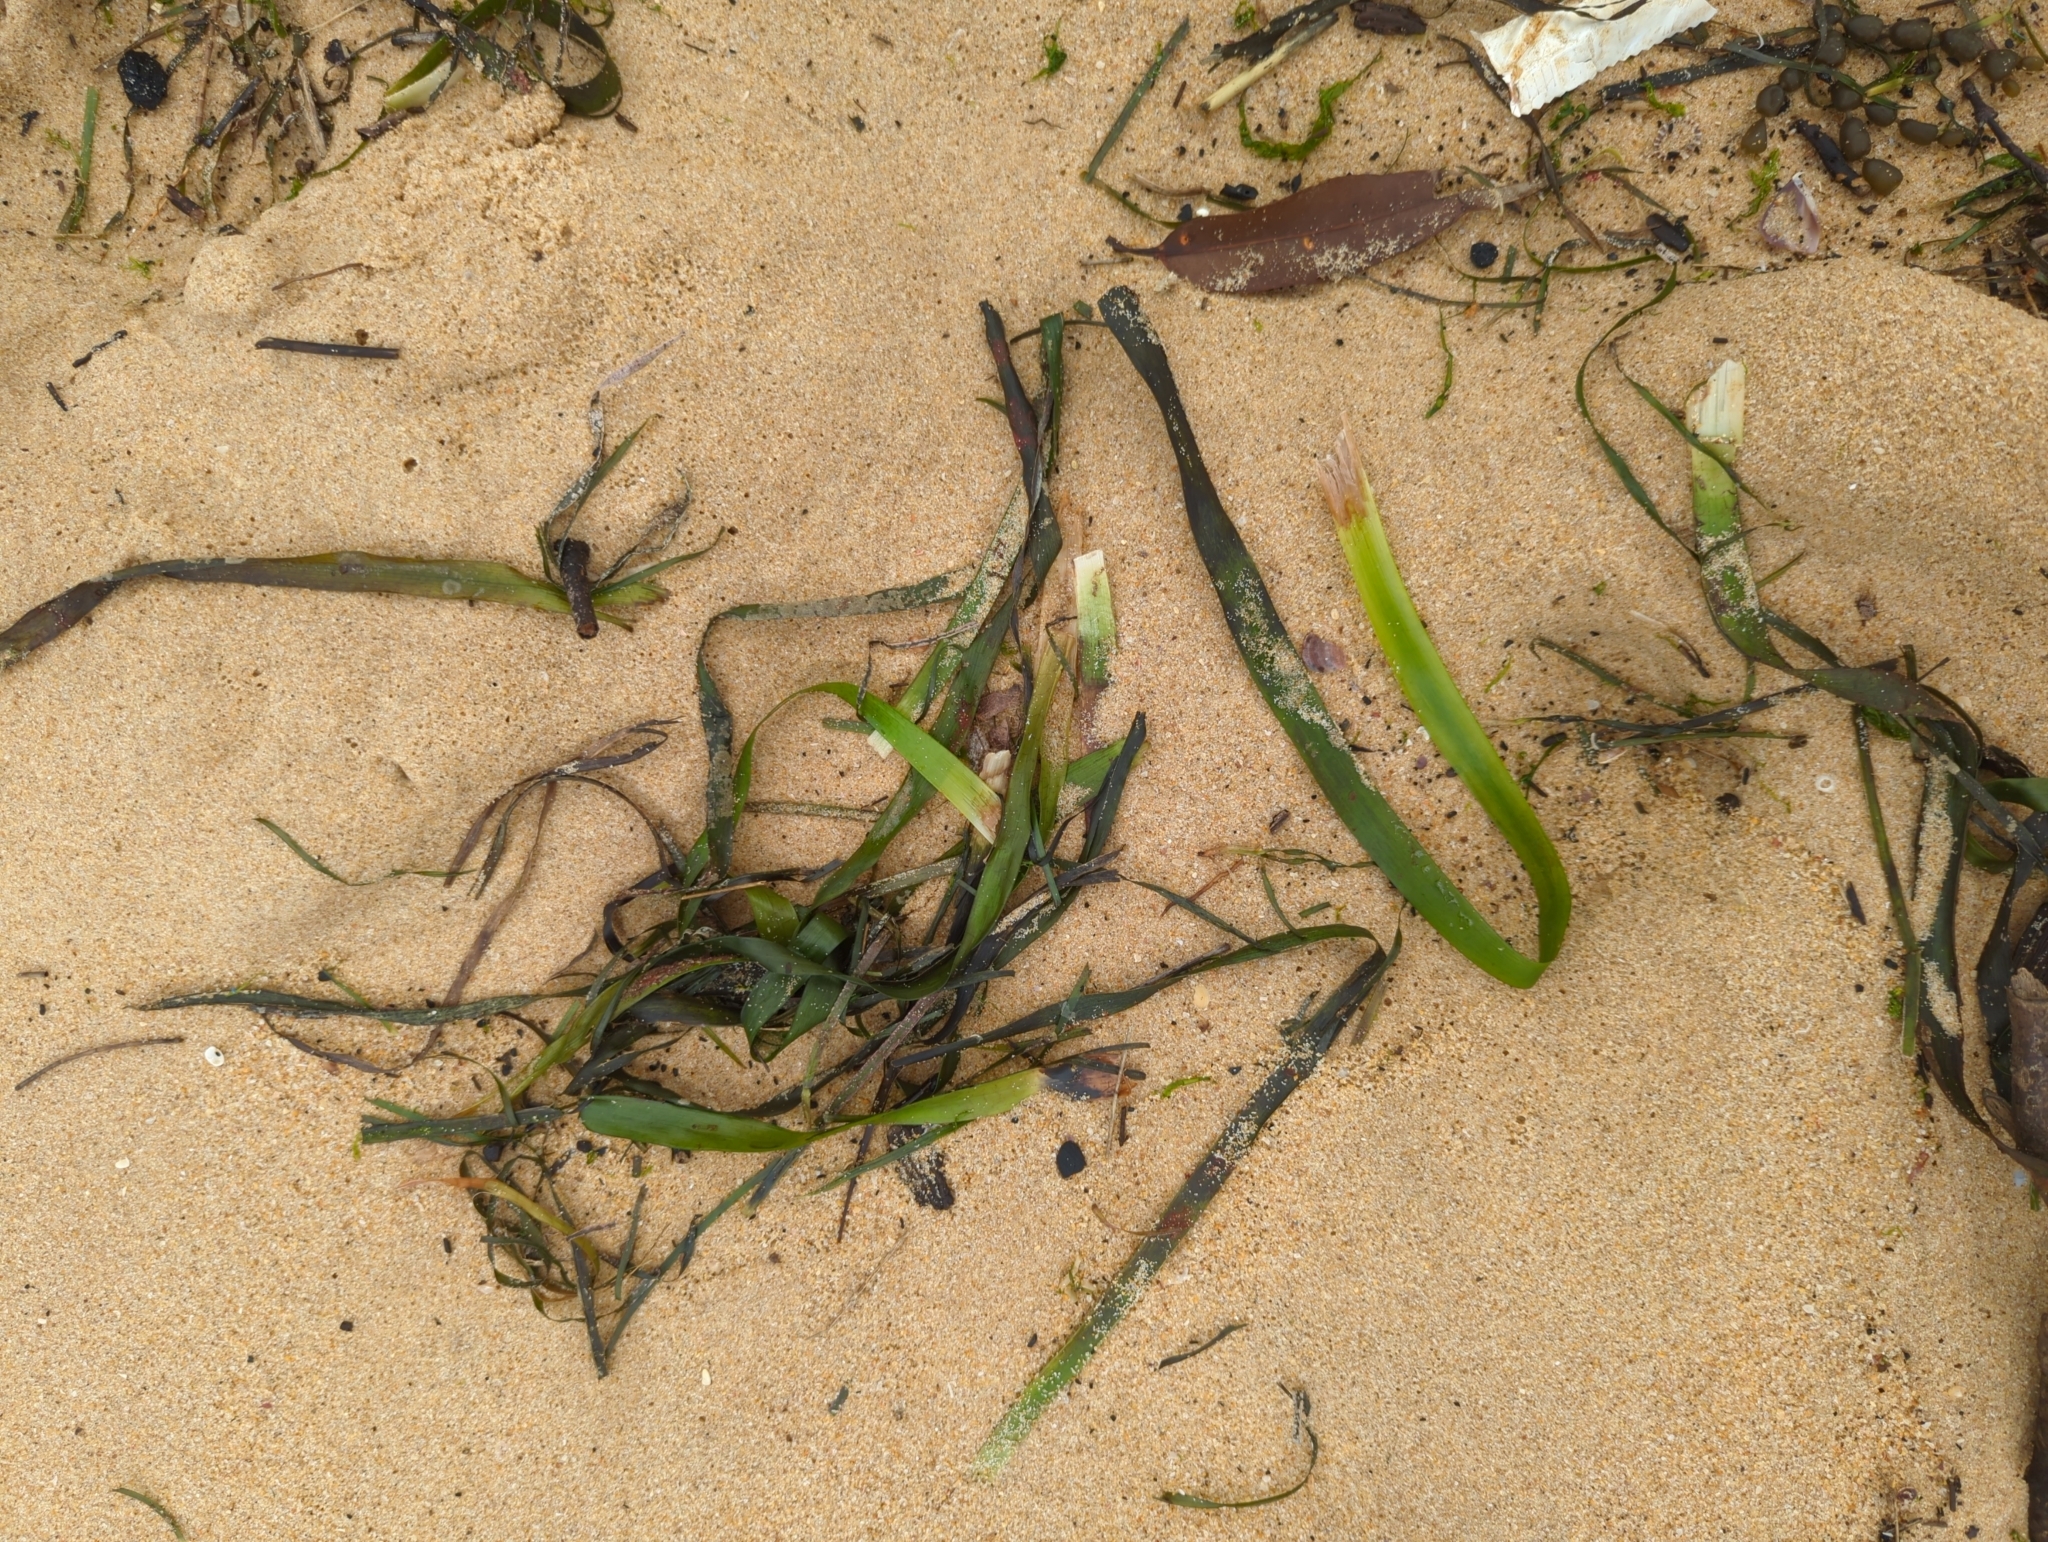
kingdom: Plantae
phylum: Tracheophyta
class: Liliopsida
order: Alismatales
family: Posidoniaceae
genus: Posidonia
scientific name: Posidonia australis
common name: Species code: pa
